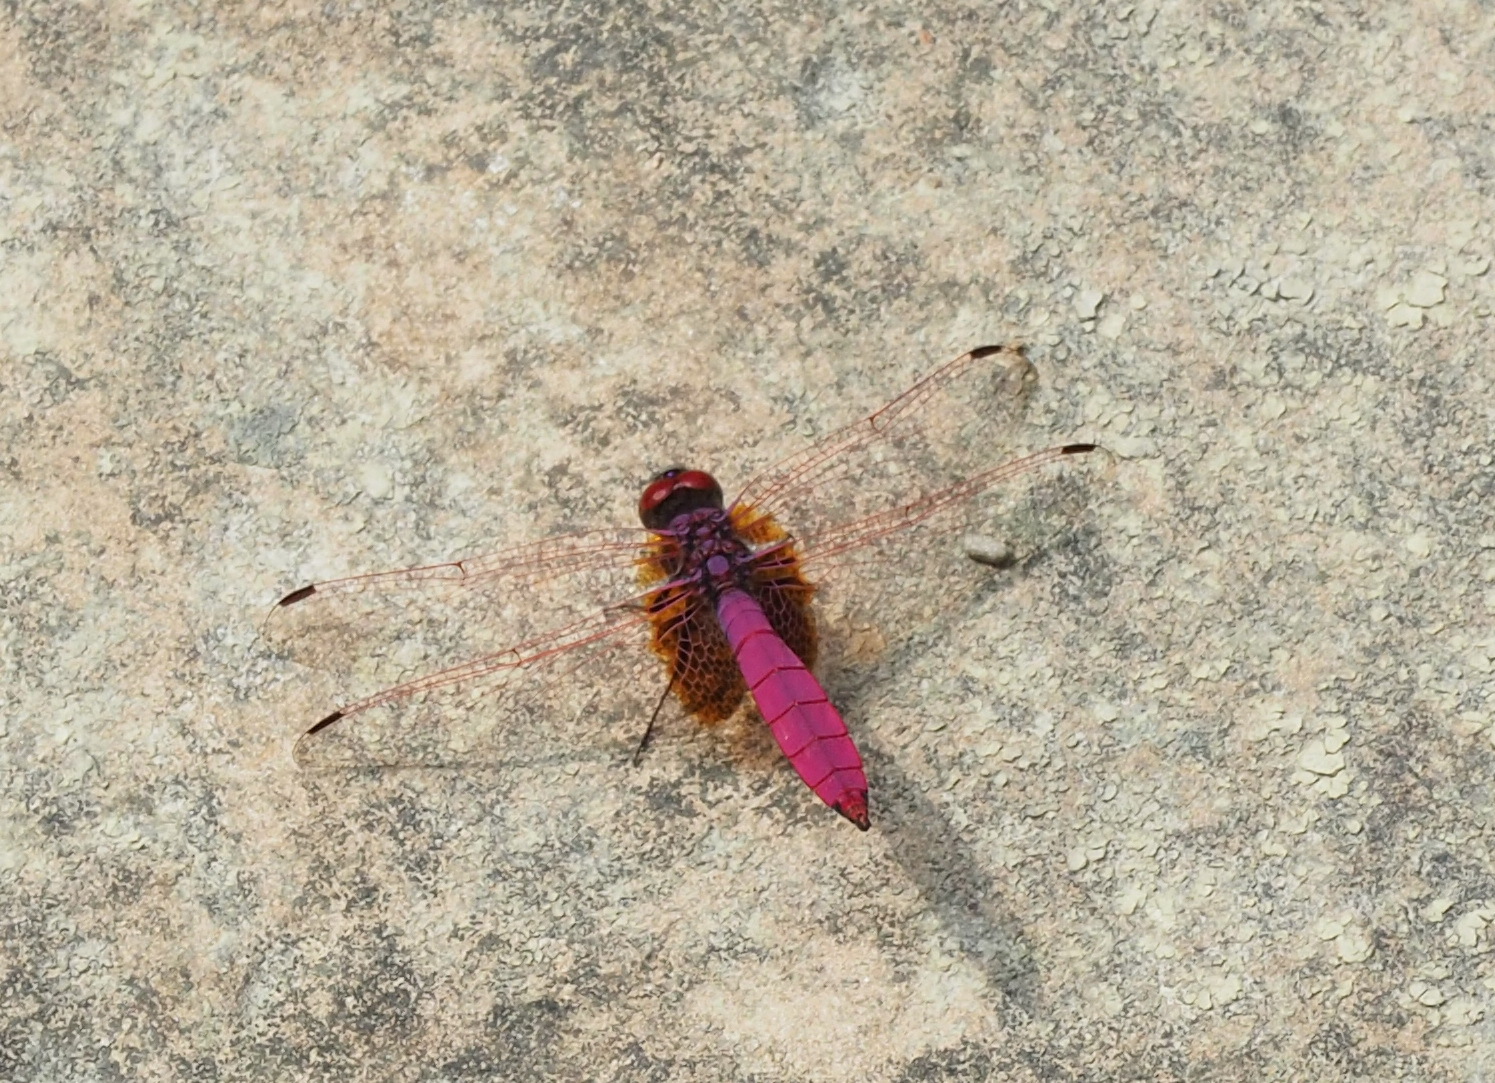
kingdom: Animalia
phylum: Arthropoda
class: Insecta
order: Odonata
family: Libellulidae
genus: Trithemis
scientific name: Trithemis aurora
